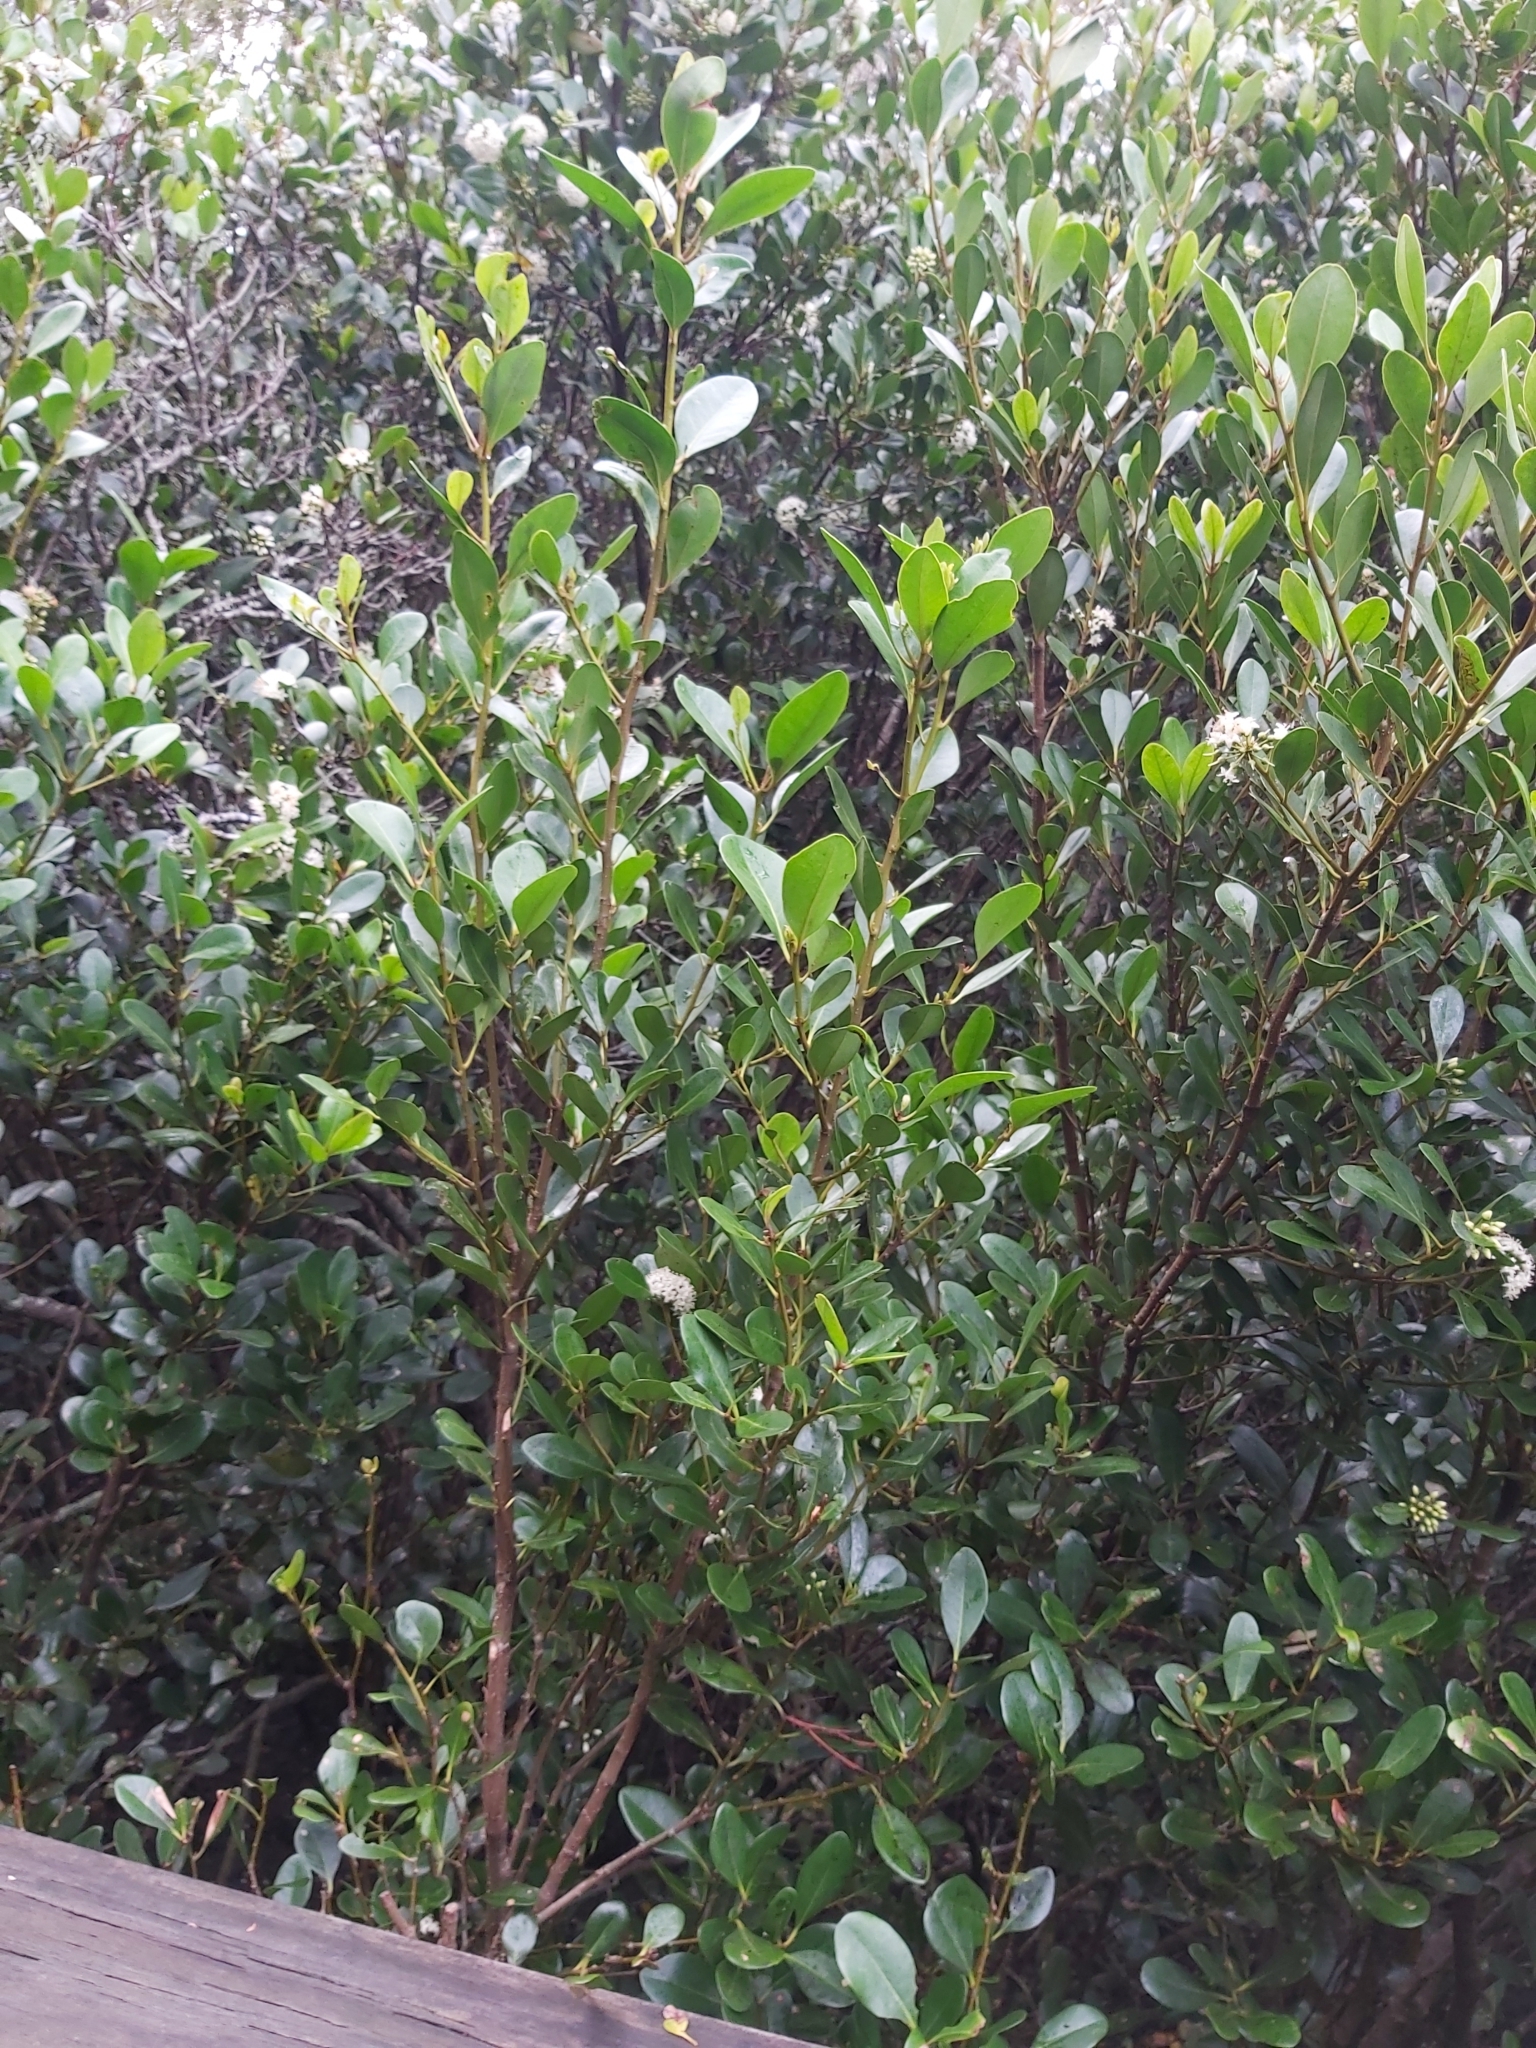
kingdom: Plantae
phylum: Tracheophyta
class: Magnoliopsida
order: Ericales
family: Primulaceae
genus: Aegiceras
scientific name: Aegiceras corniculatum
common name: River mangrove
